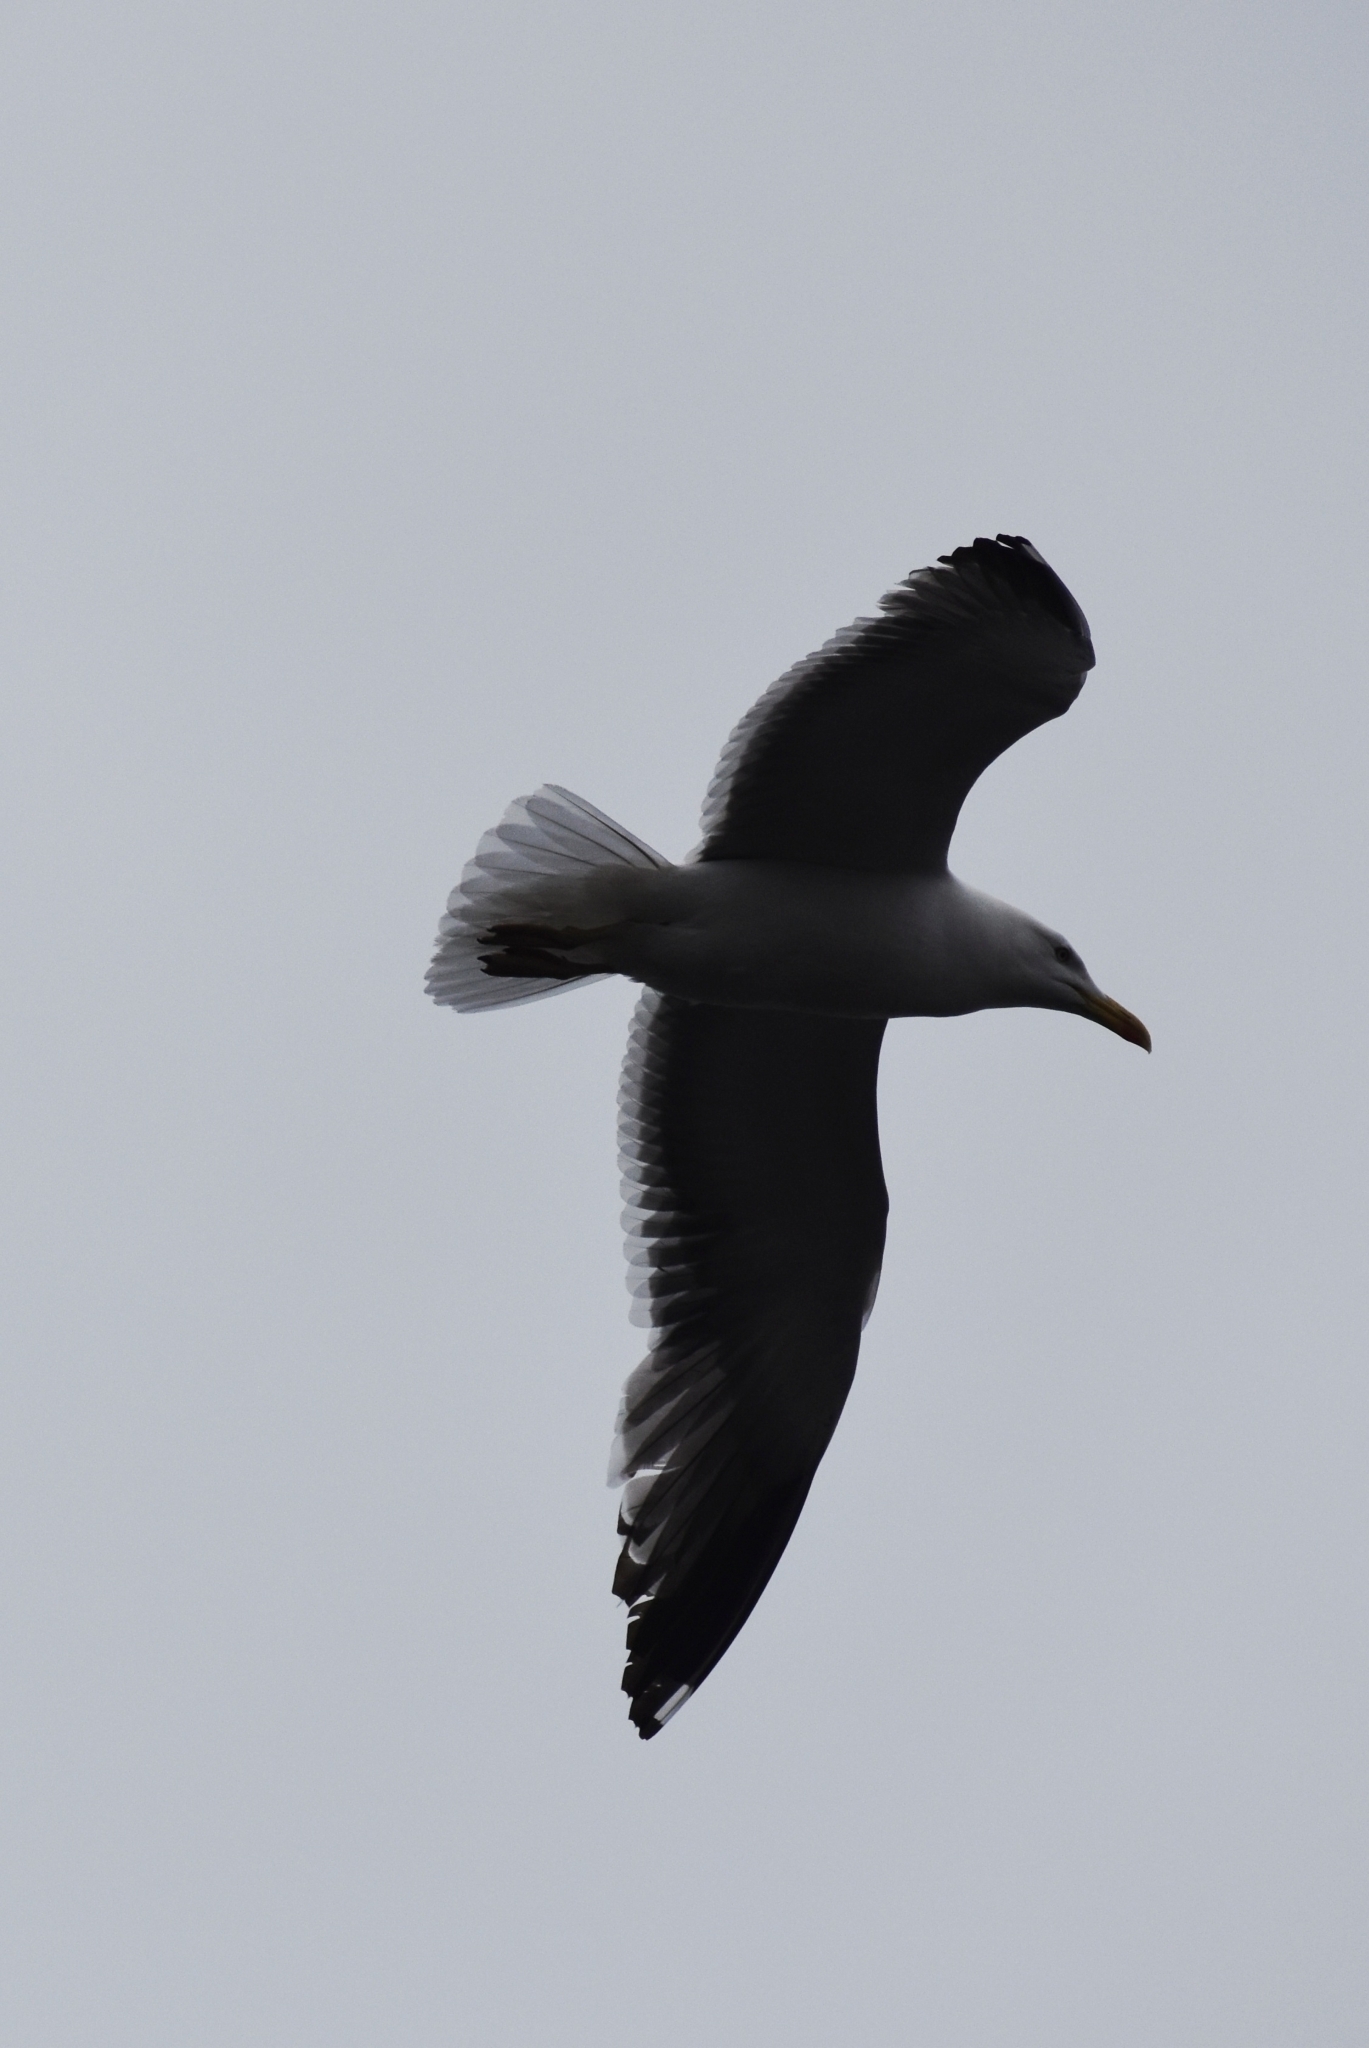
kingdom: Animalia
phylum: Chordata
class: Aves
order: Charadriiformes
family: Laridae
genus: Larus
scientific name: Larus argentatus
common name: Herring gull
